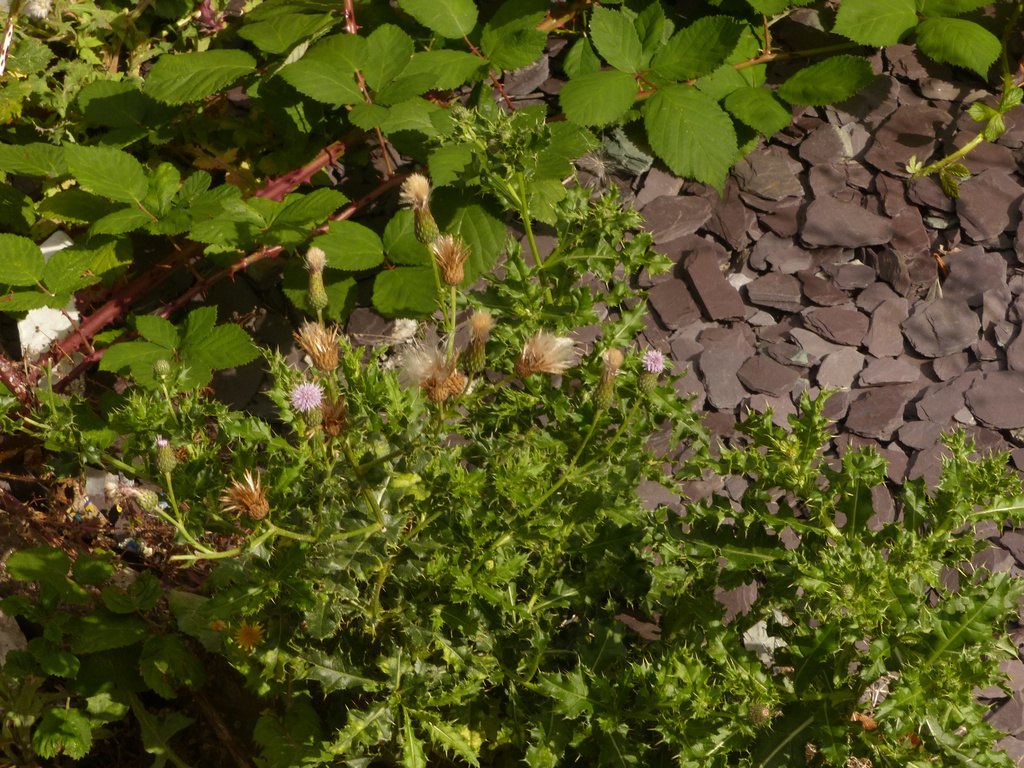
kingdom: Plantae
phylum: Tracheophyta
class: Magnoliopsida
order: Asterales
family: Asteraceae
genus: Cirsium
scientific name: Cirsium arvense
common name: Creeping thistle
